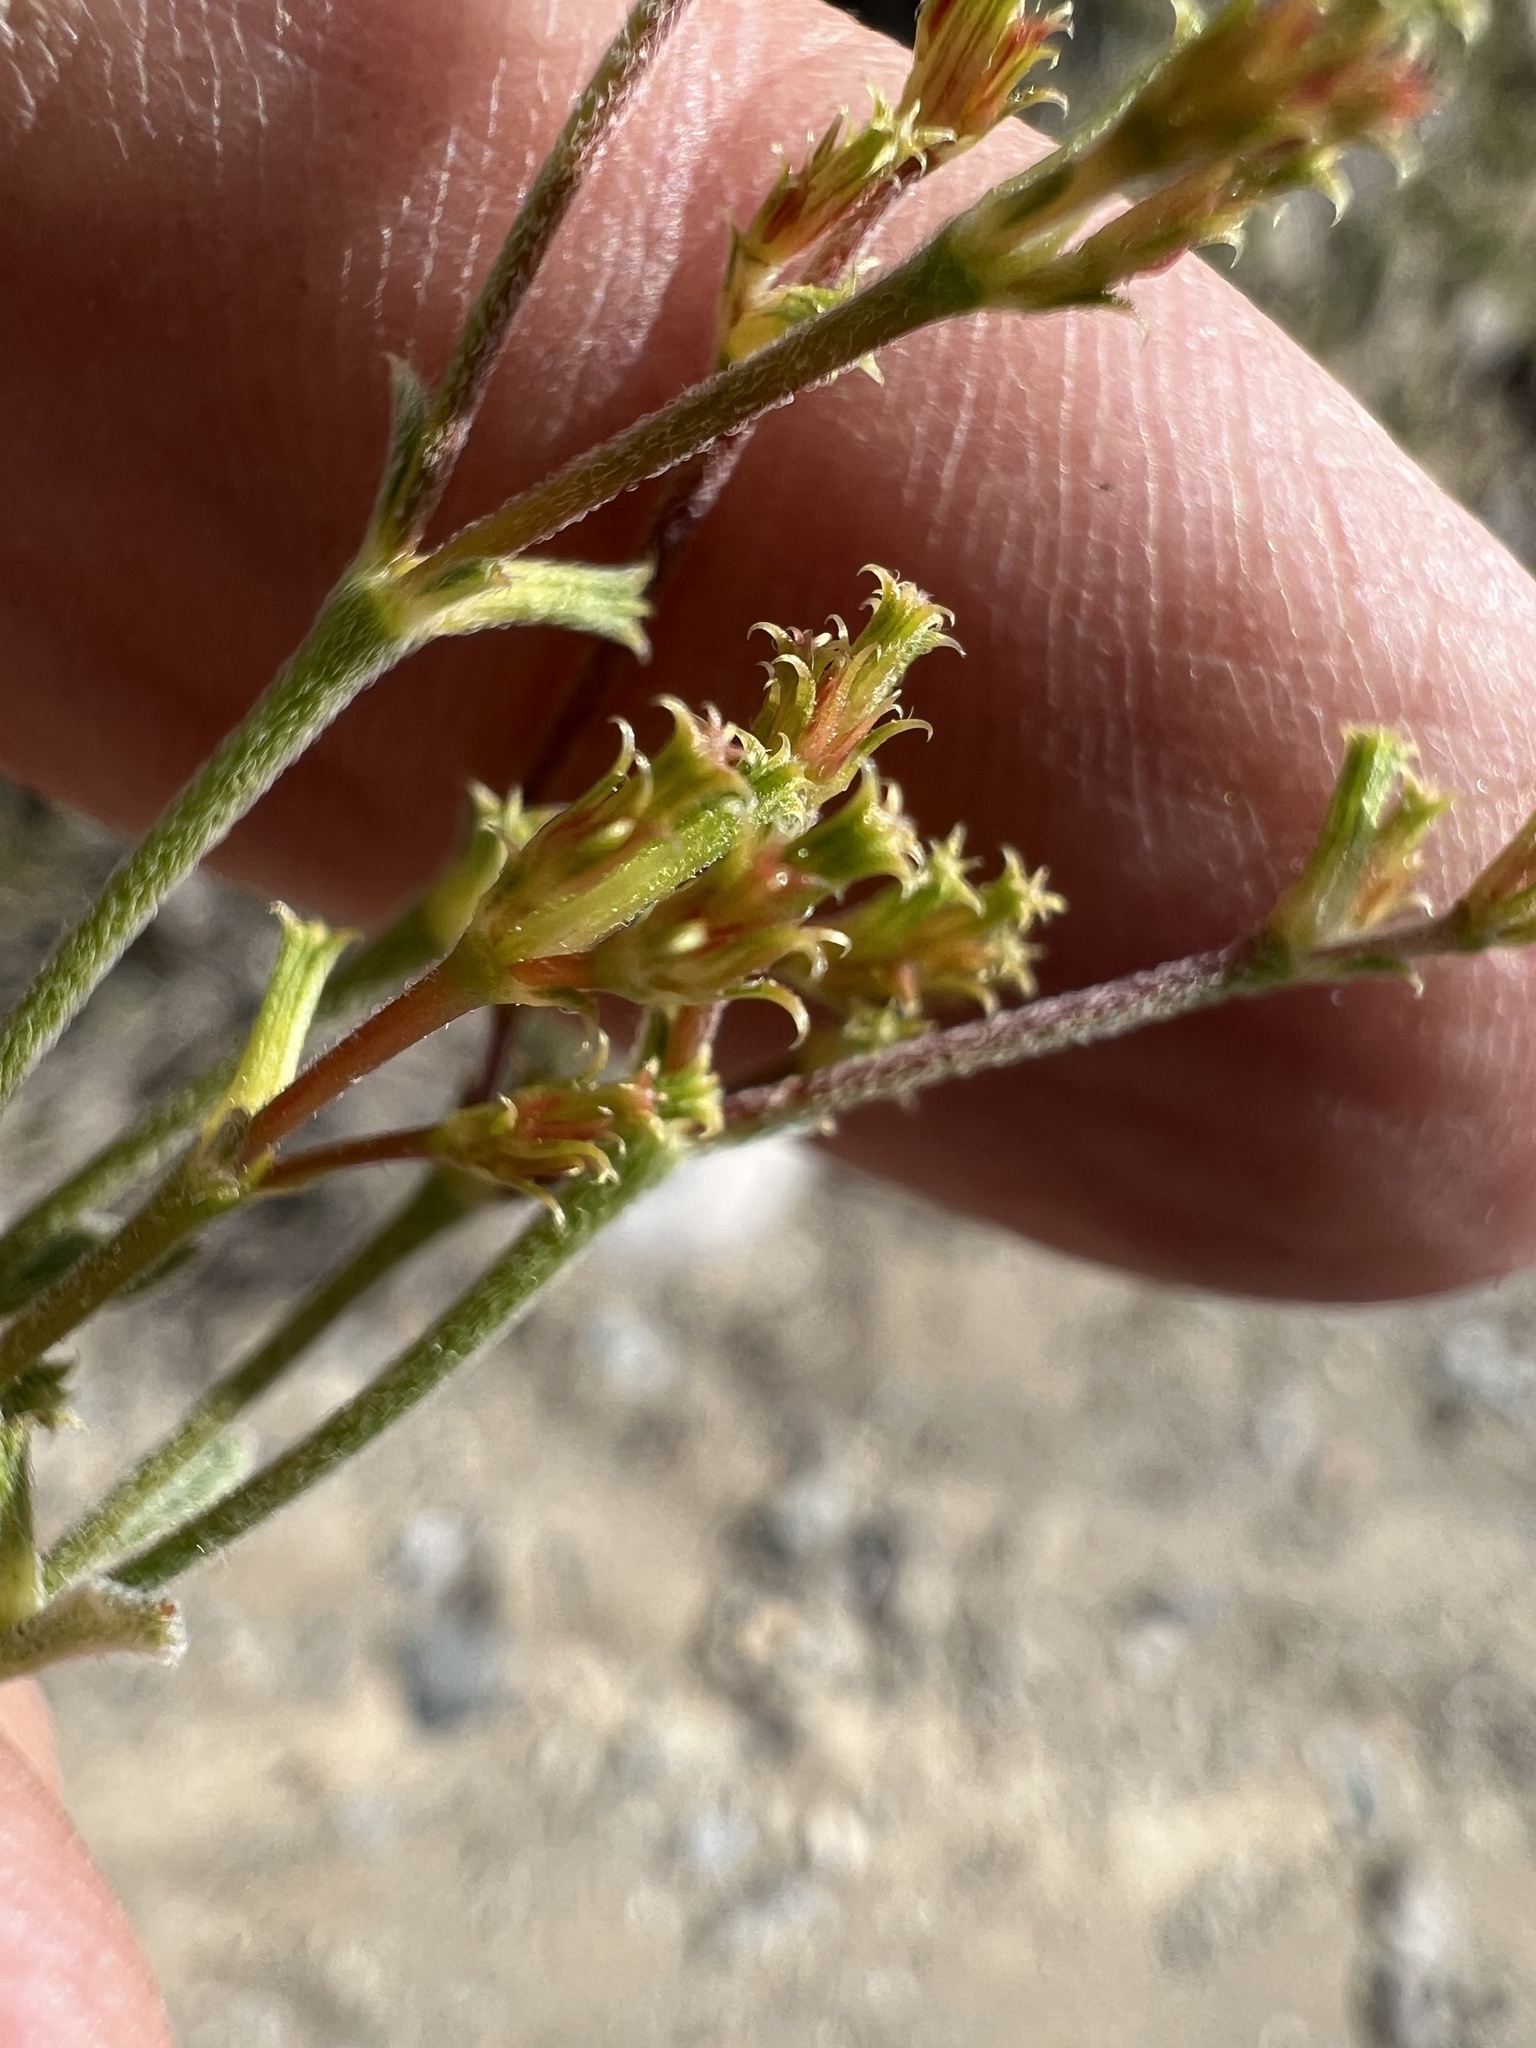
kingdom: Plantae
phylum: Tracheophyta
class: Magnoliopsida
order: Caryophyllales
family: Polygonaceae
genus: Chorizanthe
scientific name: Chorizanthe brevicornu
